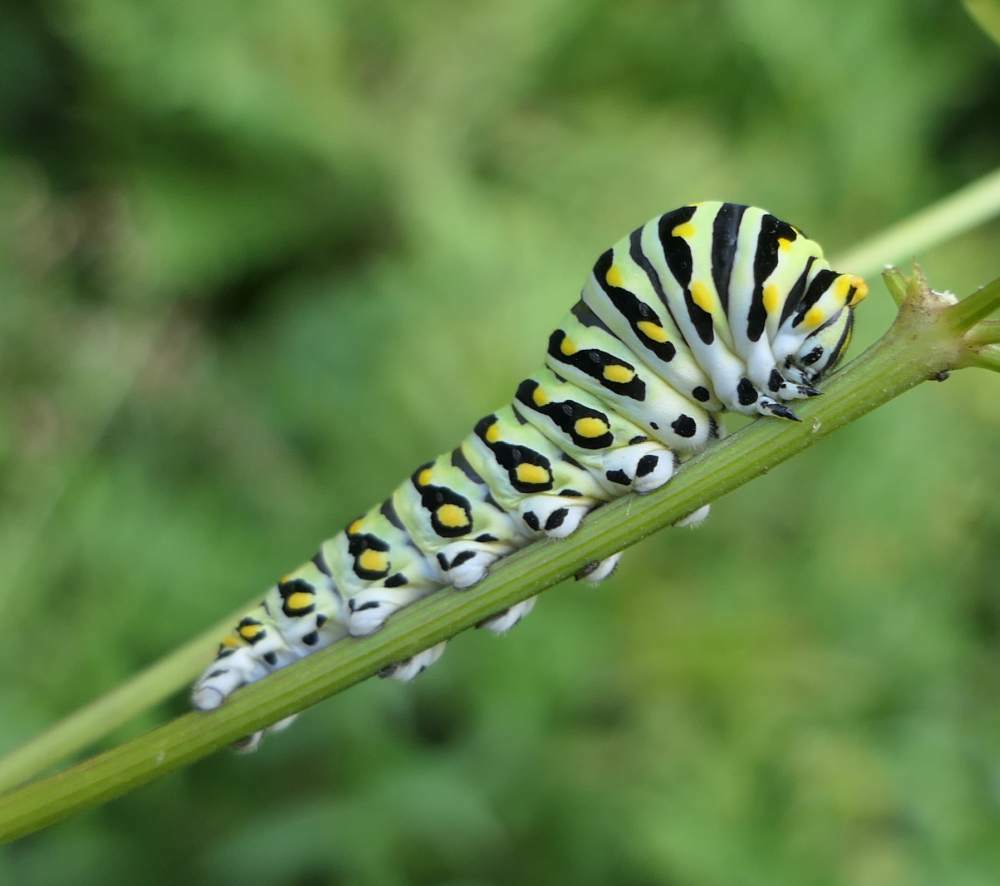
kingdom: Animalia
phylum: Arthropoda
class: Insecta
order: Lepidoptera
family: Papilionidae
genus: Papilio
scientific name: Papilio polyxenes
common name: Black swallowtail
